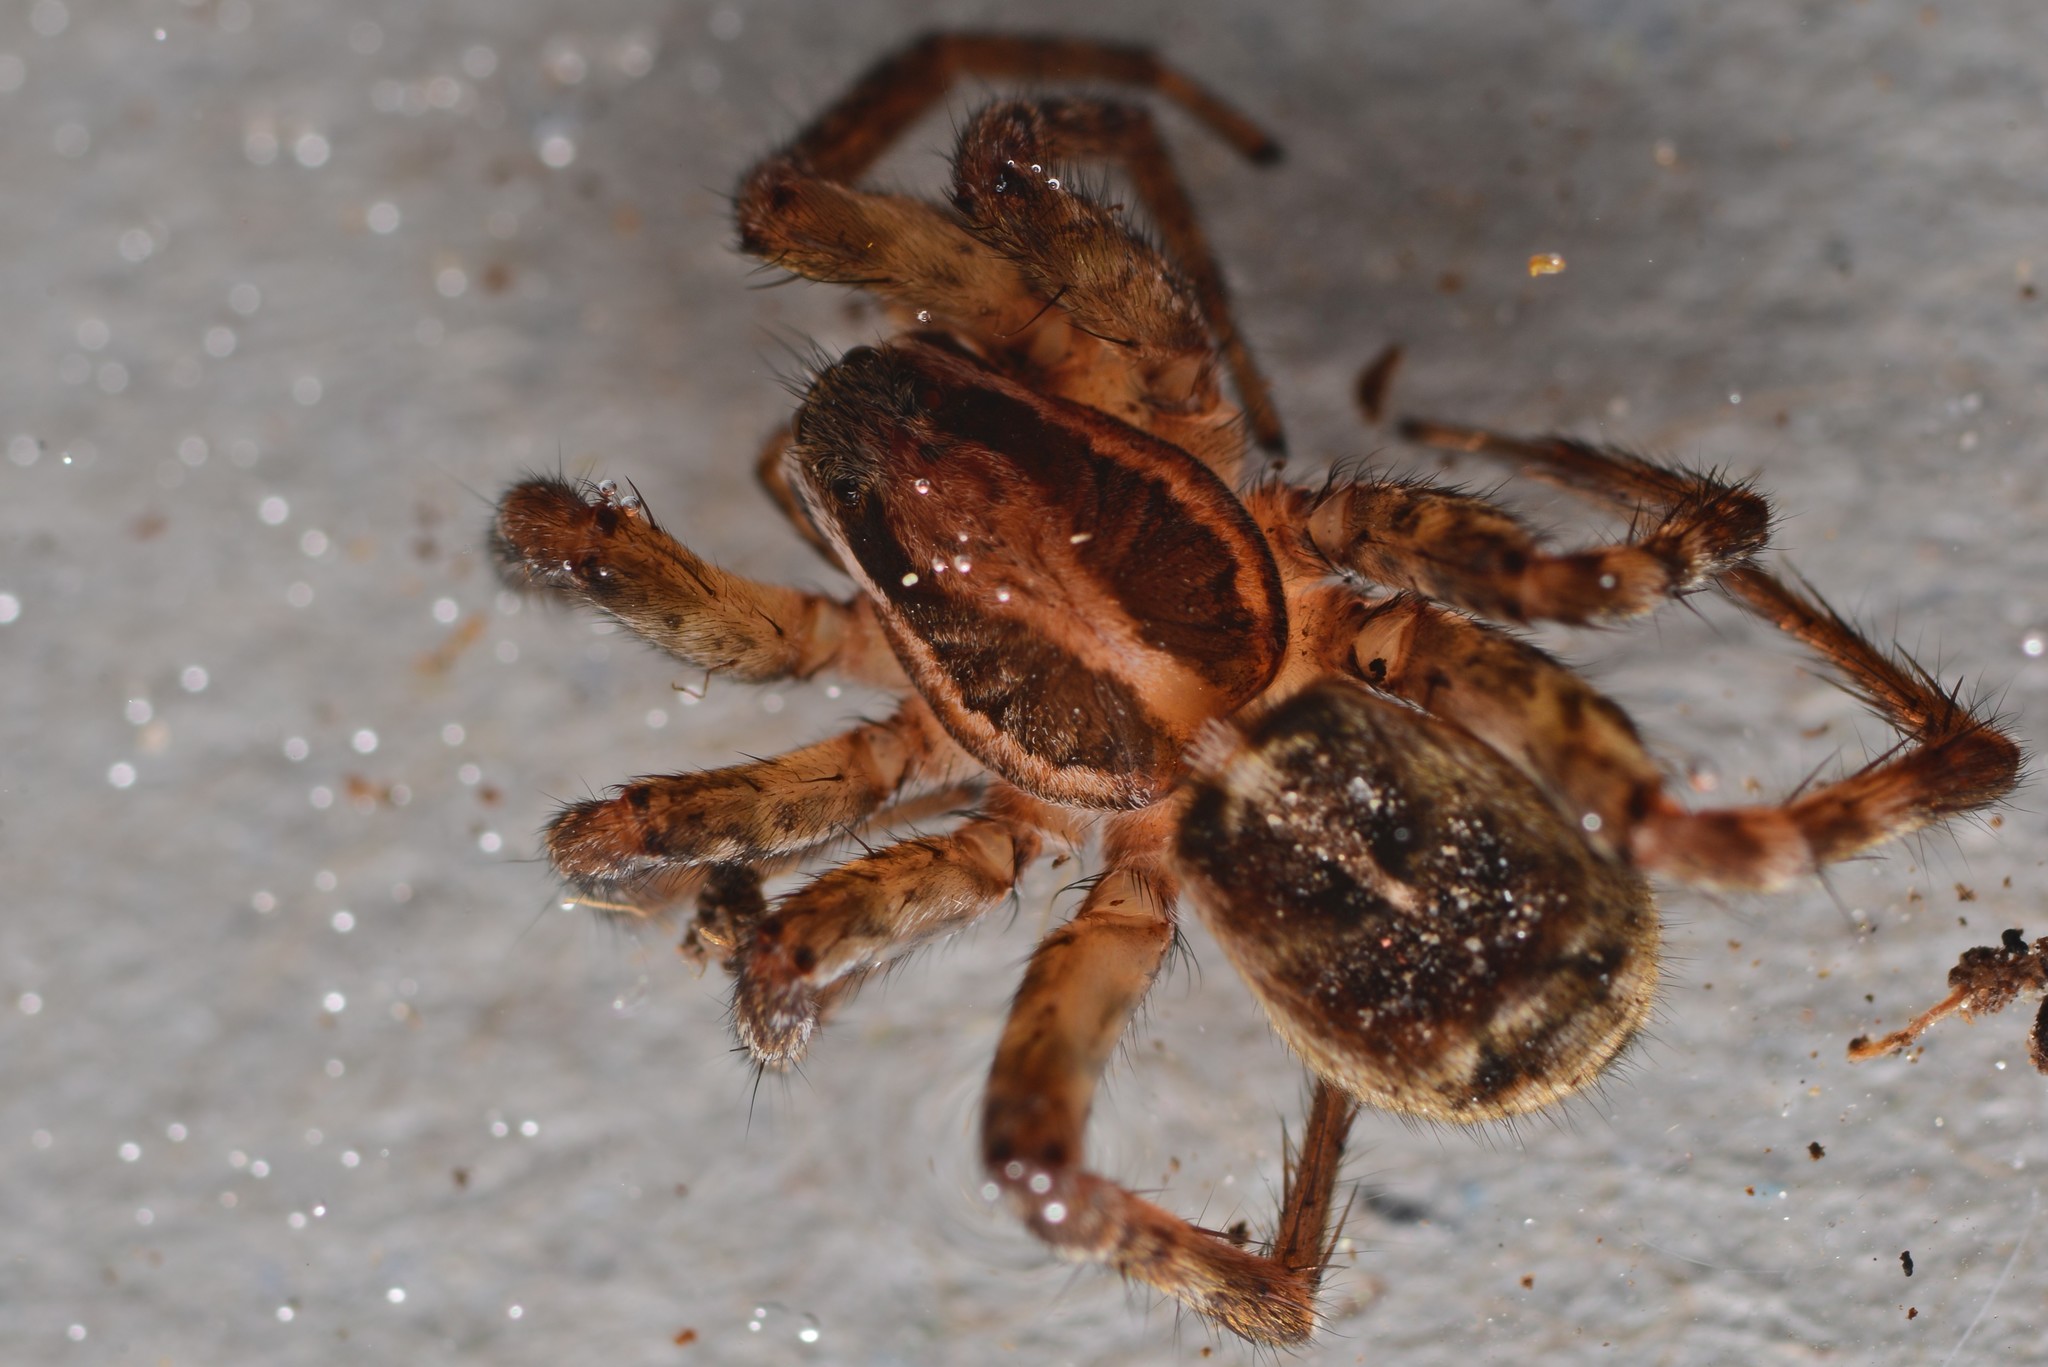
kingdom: Animalia
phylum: Arthropoda
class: Arachnida
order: Araneae
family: Lycosidae
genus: Anoteropsis
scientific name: Anoteropsis hilaris
